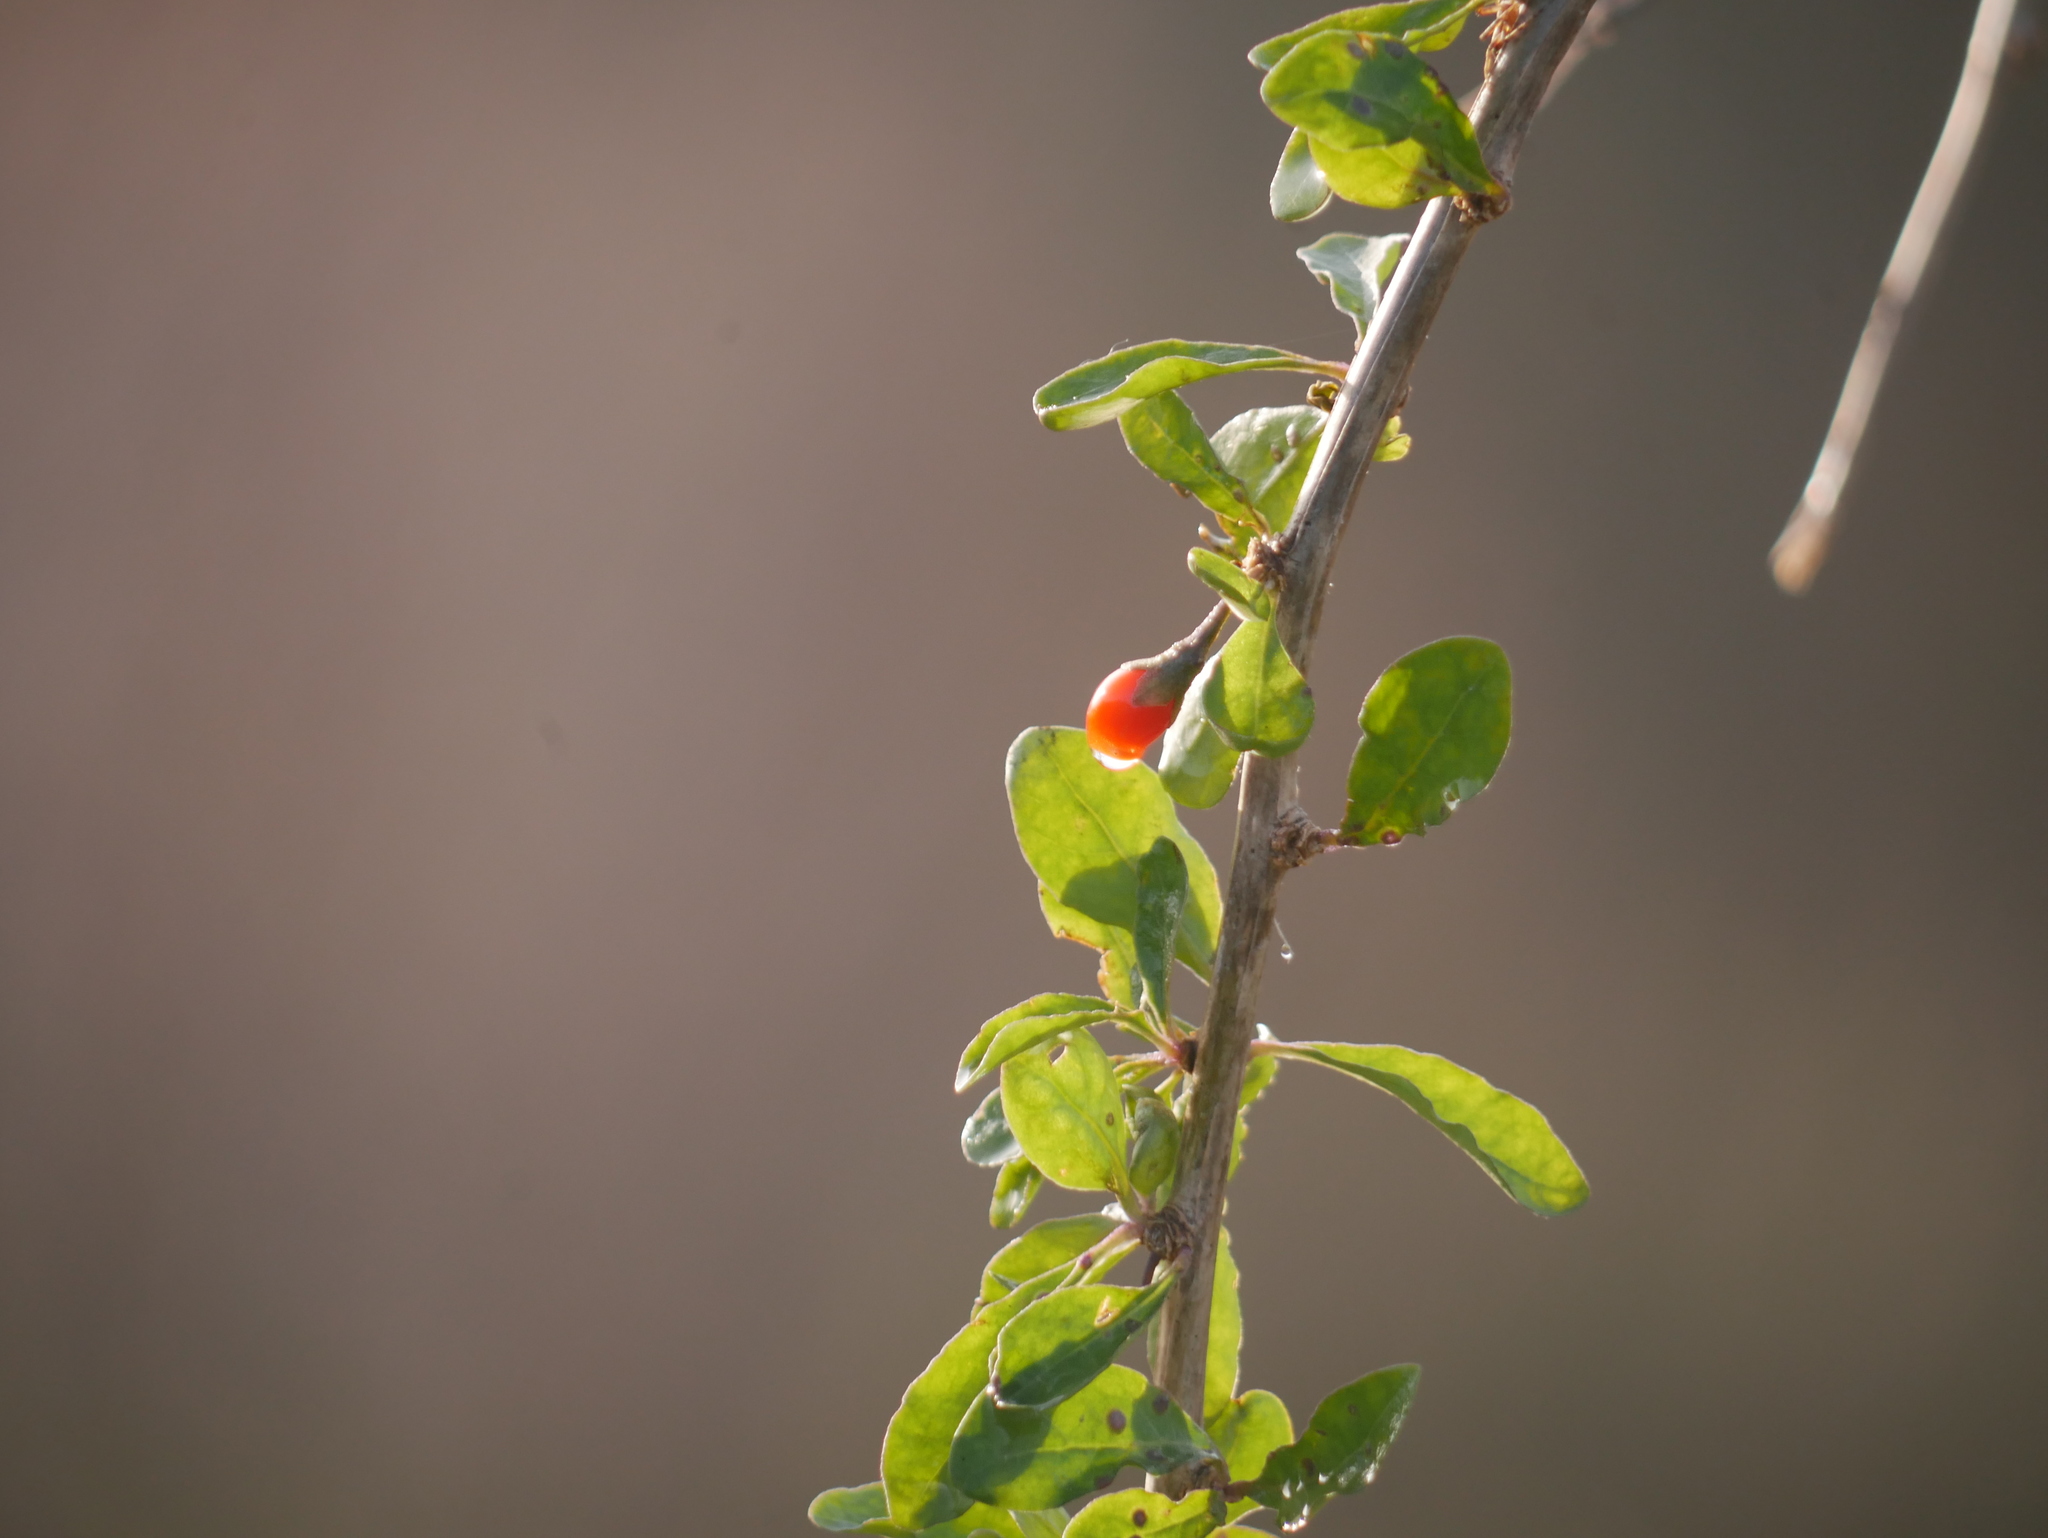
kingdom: Plantae
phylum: Tracheophyta
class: Magnoliopsida
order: Solanales
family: Solanaceae
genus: Lycium
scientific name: Lycium barbarum
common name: Duke of argyll's teaplant
